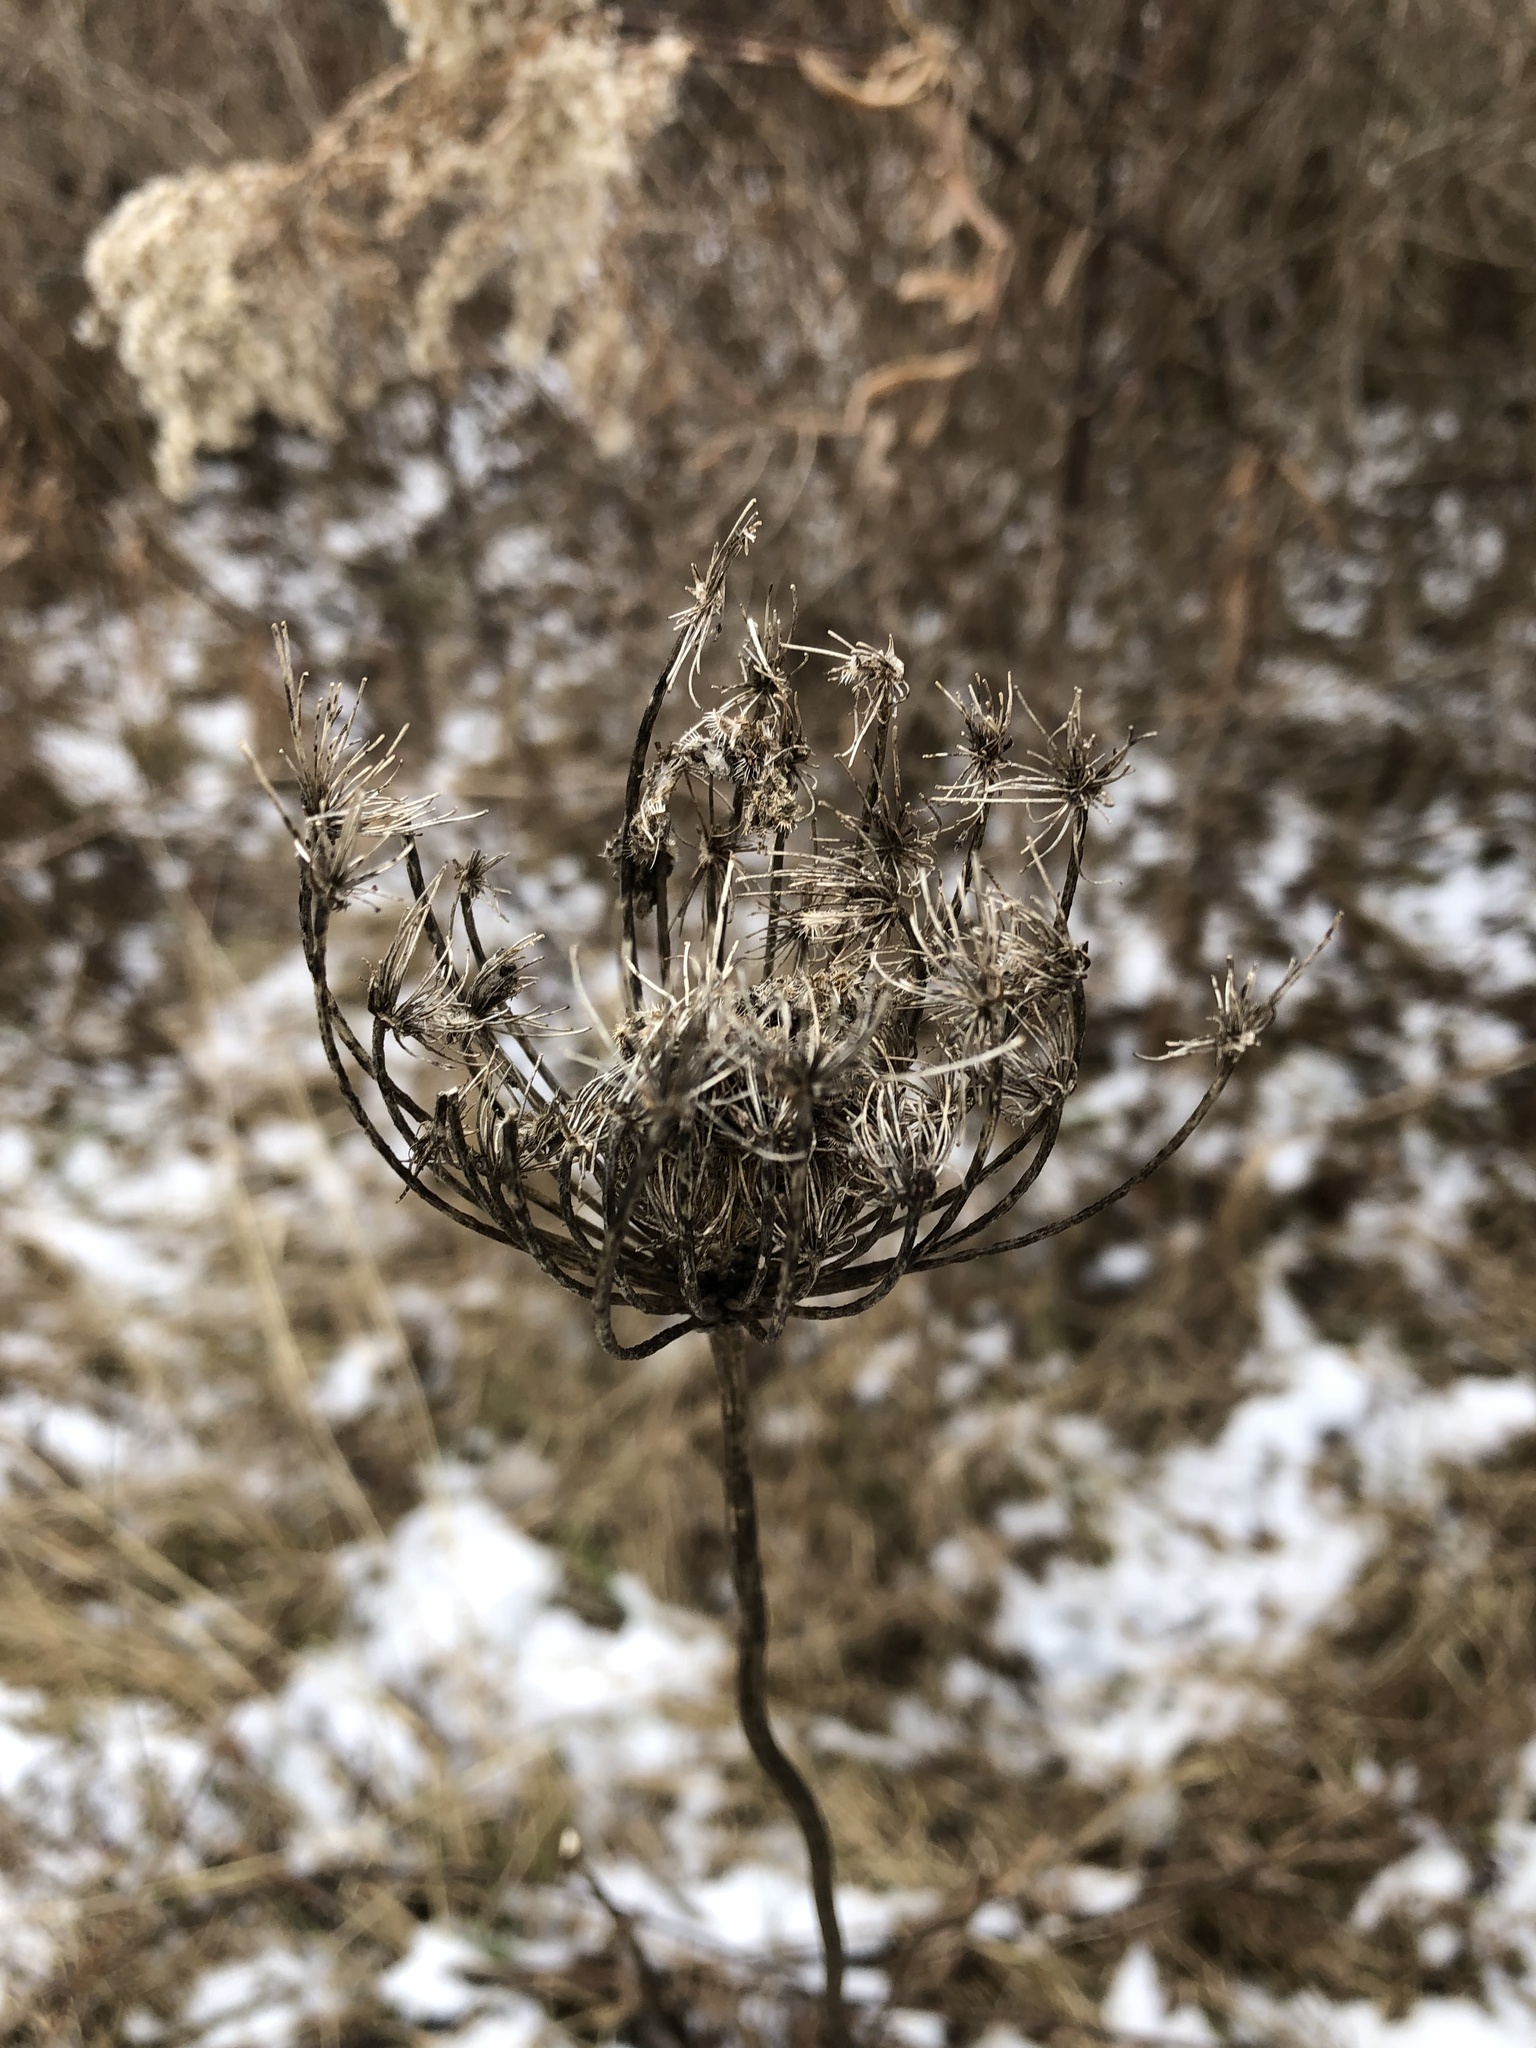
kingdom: Plantae
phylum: Tracheophyta
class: Magnoliopsida
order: Apiales
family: Apiaceae
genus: Daucus
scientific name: Daucus carota
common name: Wild carrot
